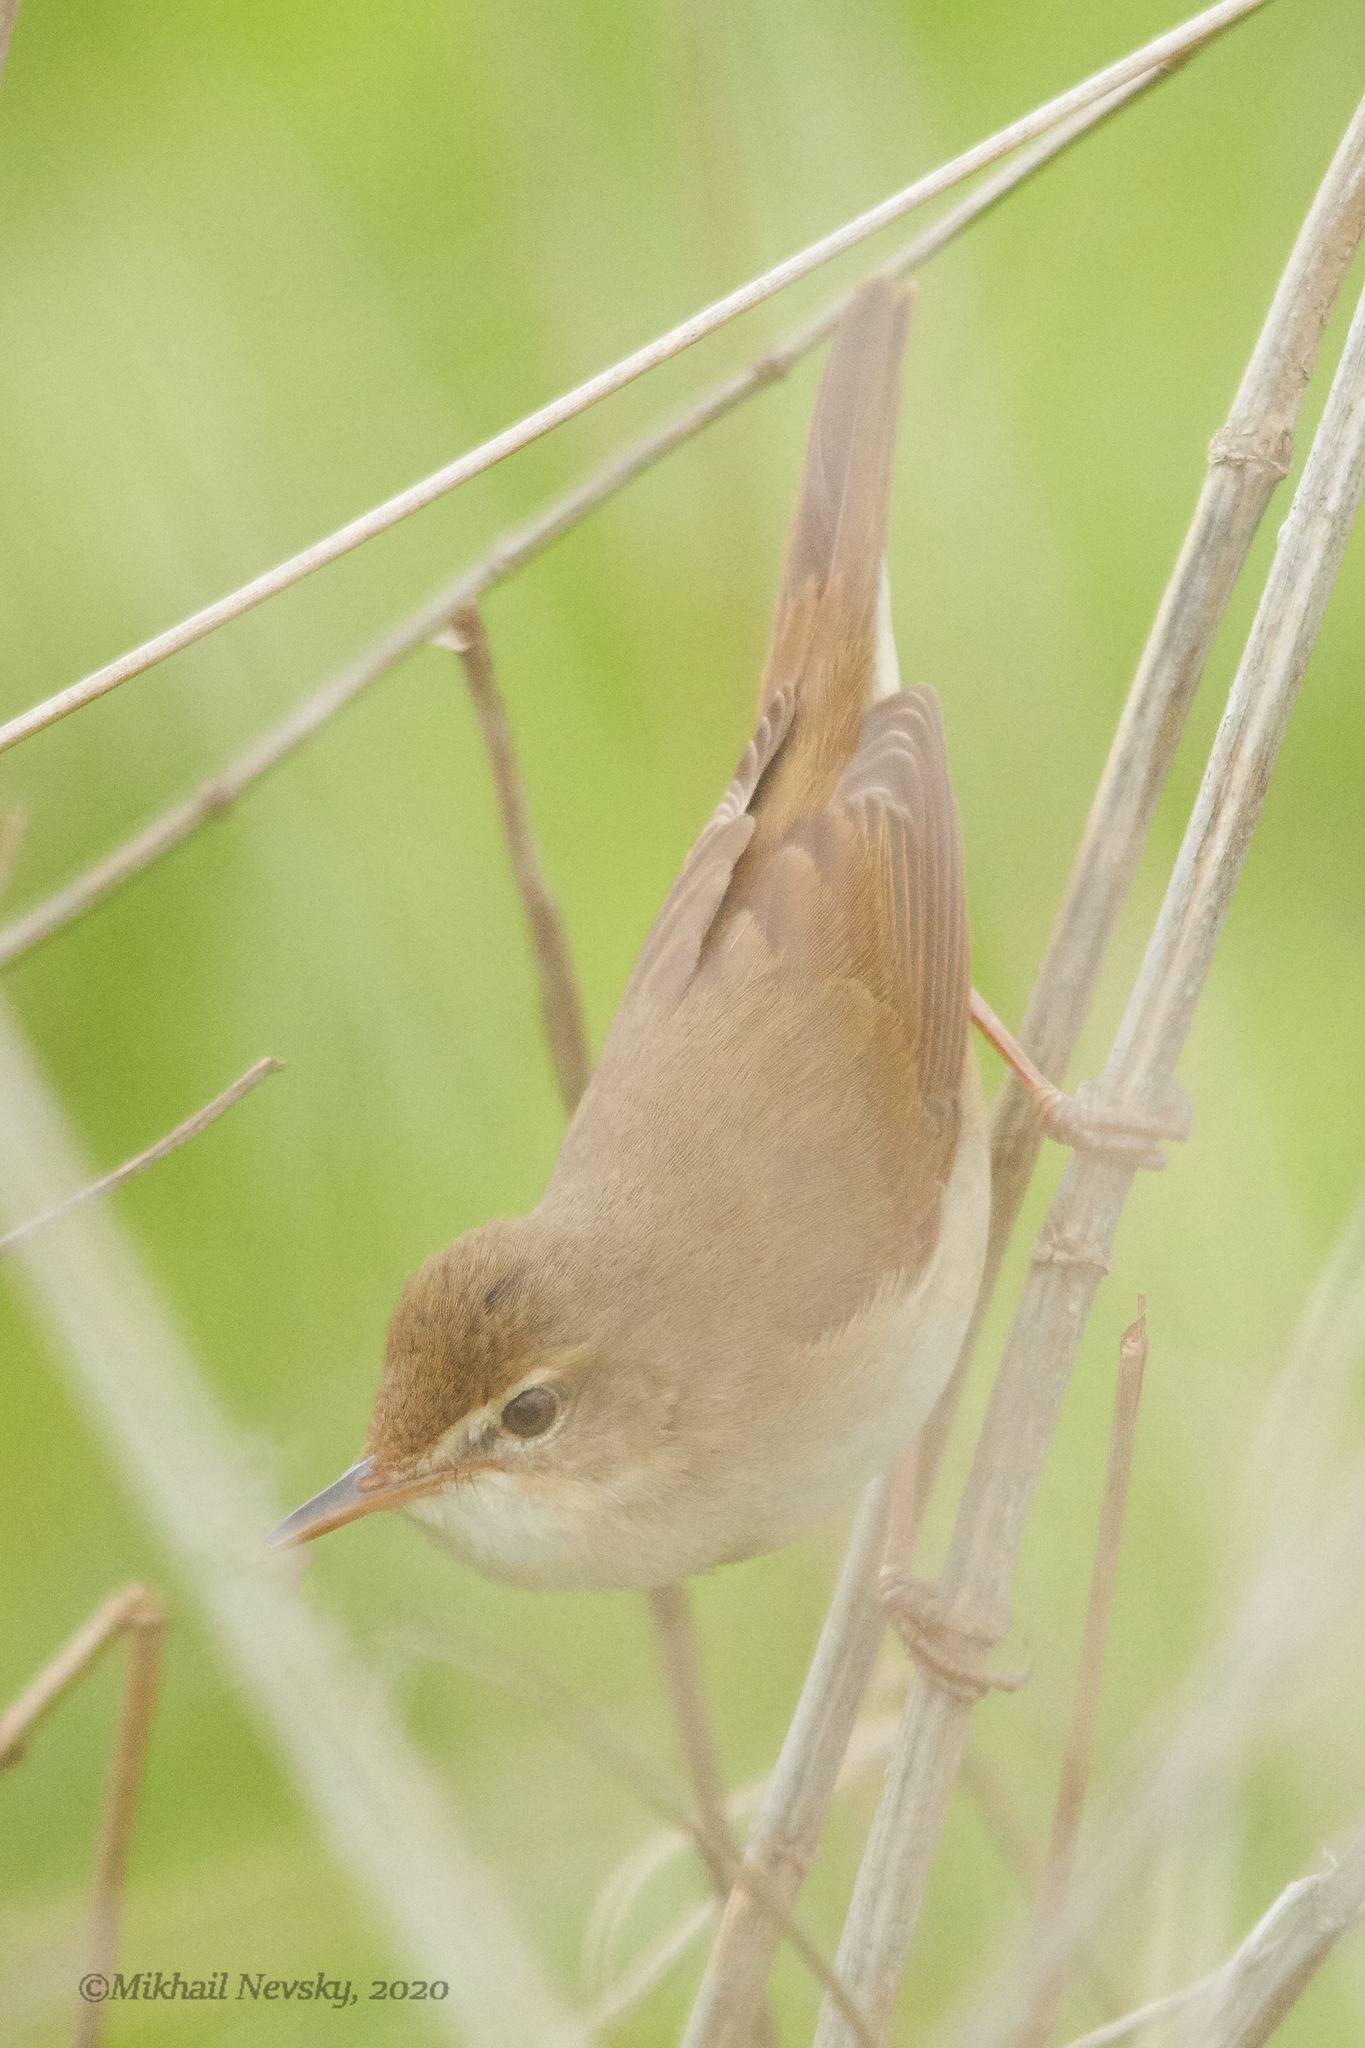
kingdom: Animalia
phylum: Chordata
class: Aves
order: Passeriformes
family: Acrocephalidae
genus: Acrocephalus
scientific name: Acrocephalus dumetorum
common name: Blyth's reed warbler
